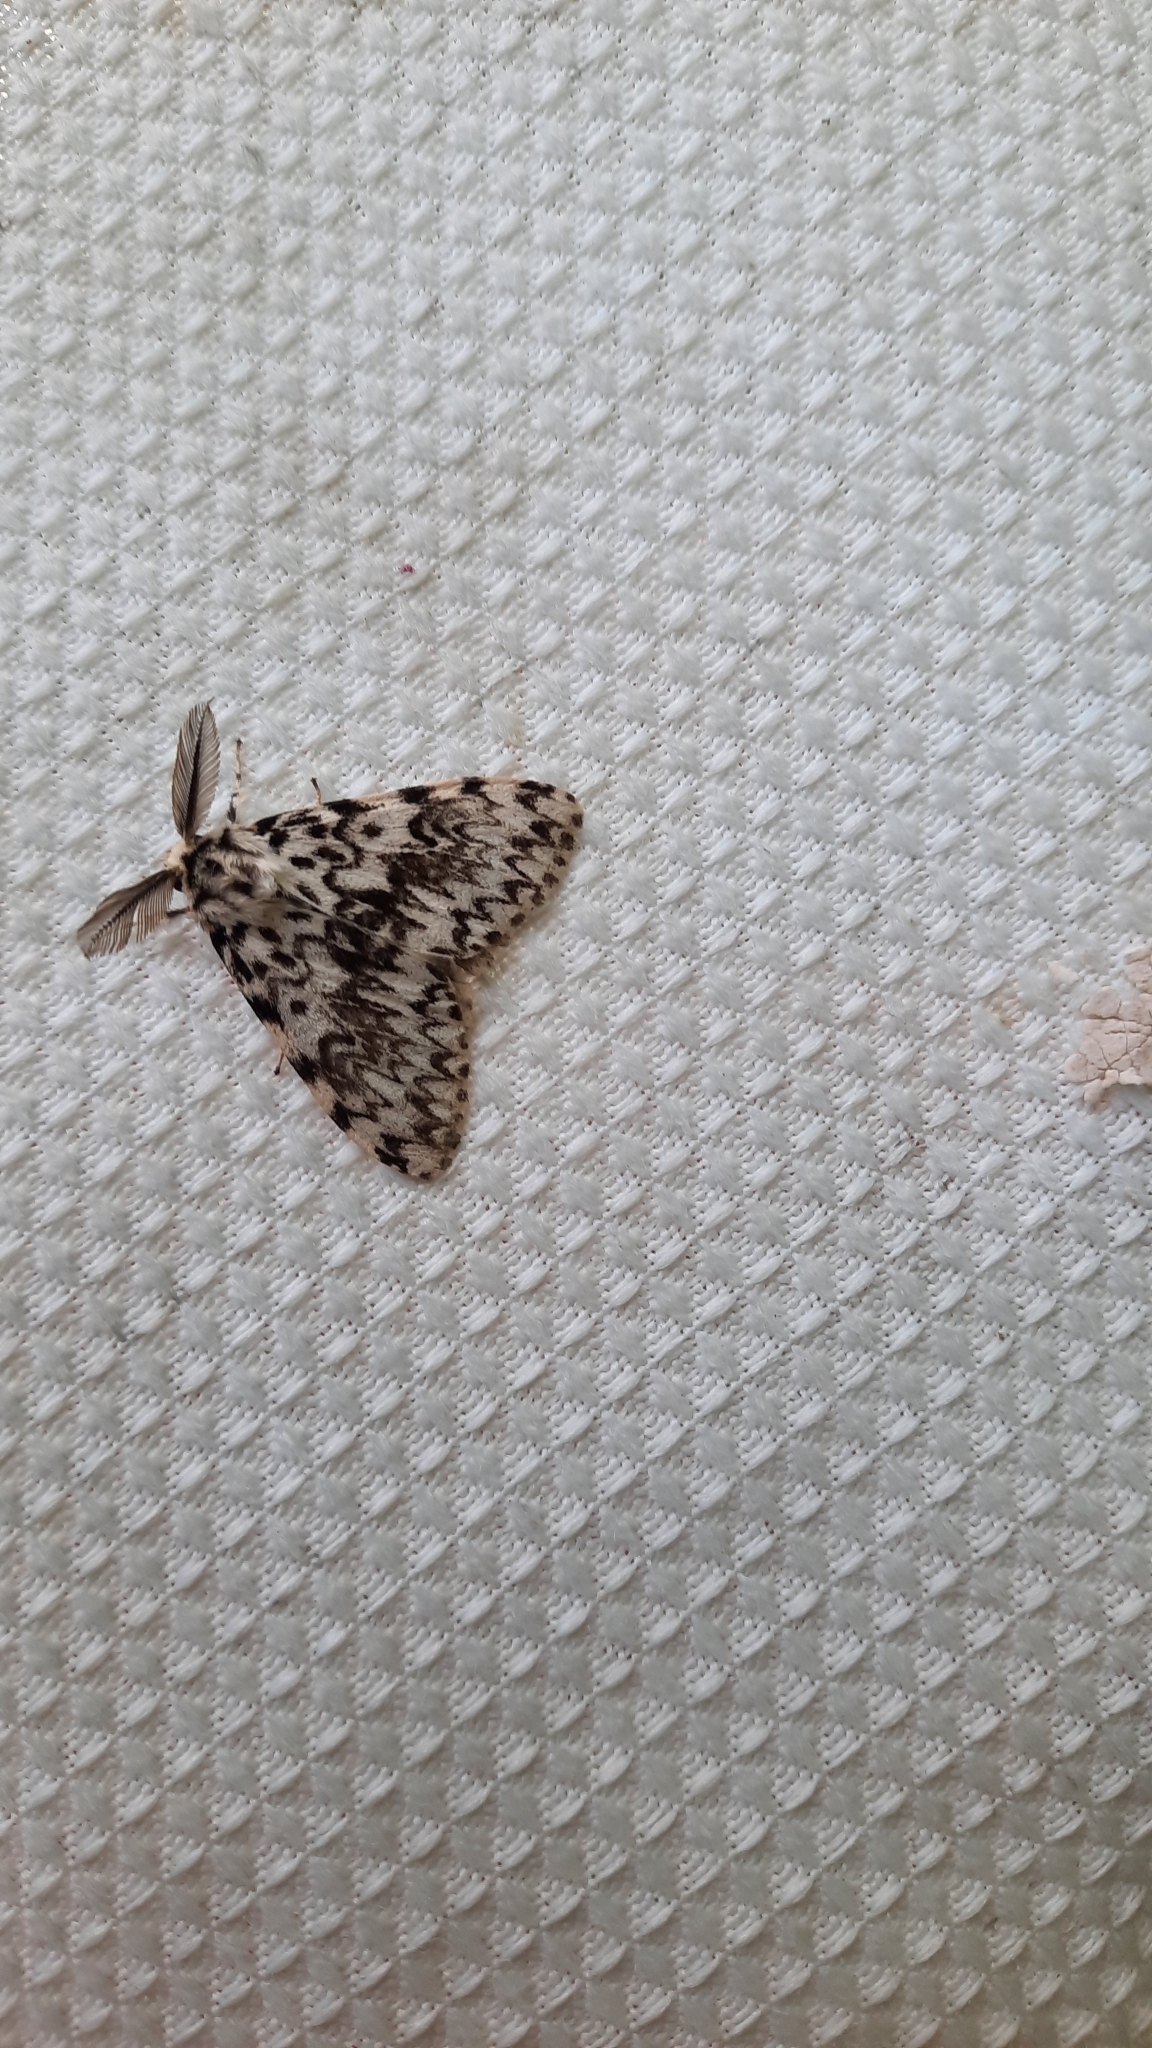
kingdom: Animalia
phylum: Arthropoda
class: Insecta
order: Lepidoptera
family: Erebidae
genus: Lymantria
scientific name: Lymantria monacha
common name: Black arches
